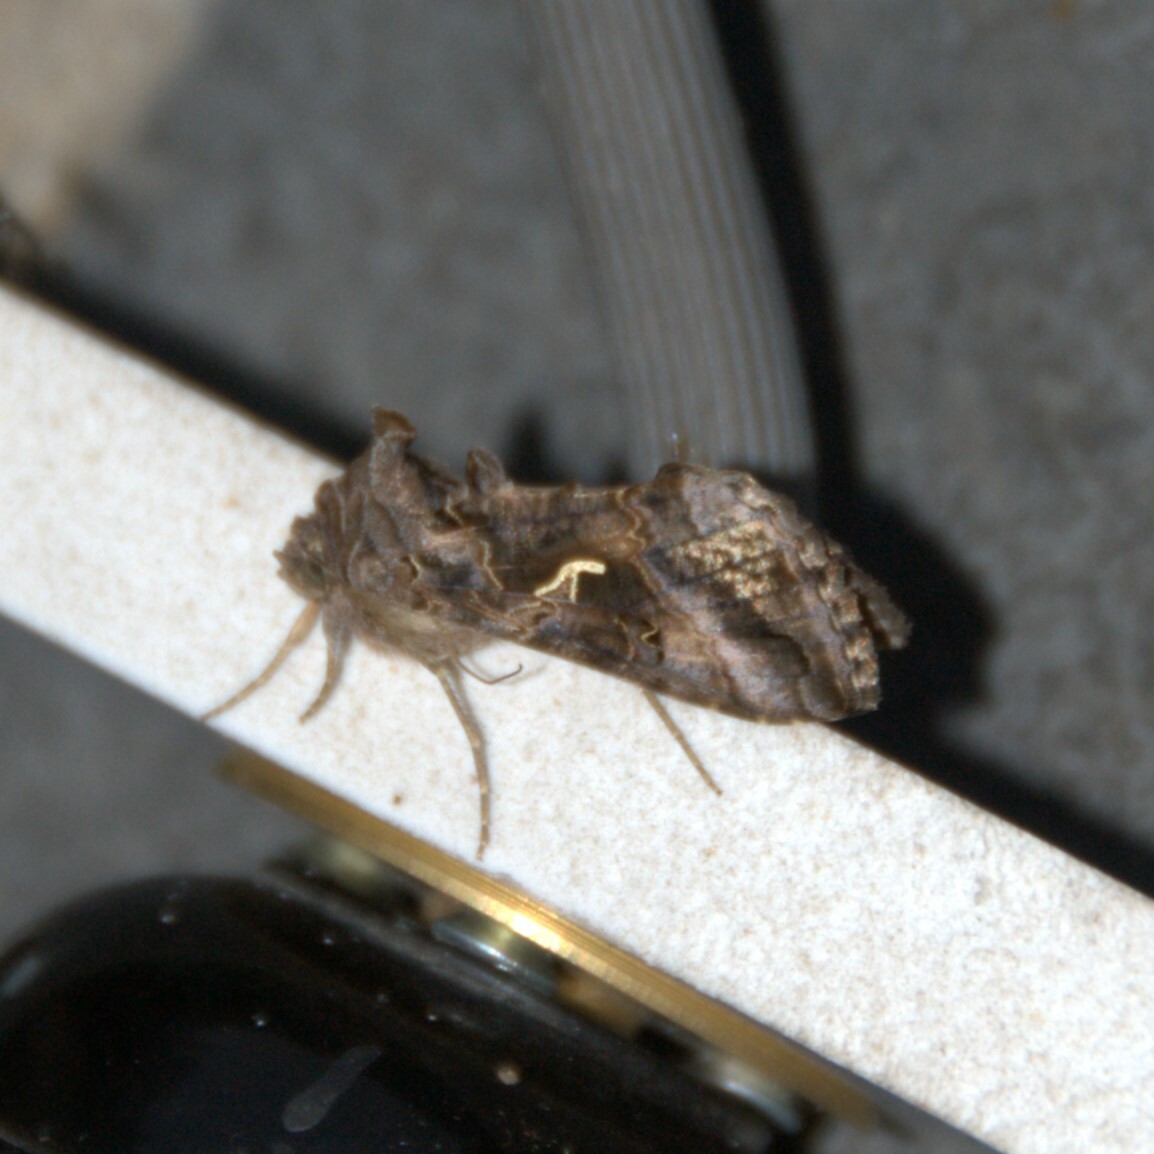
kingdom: Animalia
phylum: Arthropoda
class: Insecta
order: Lepidoptera
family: Noctuidae
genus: Autographa
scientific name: Autographa gamma
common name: Silver y
